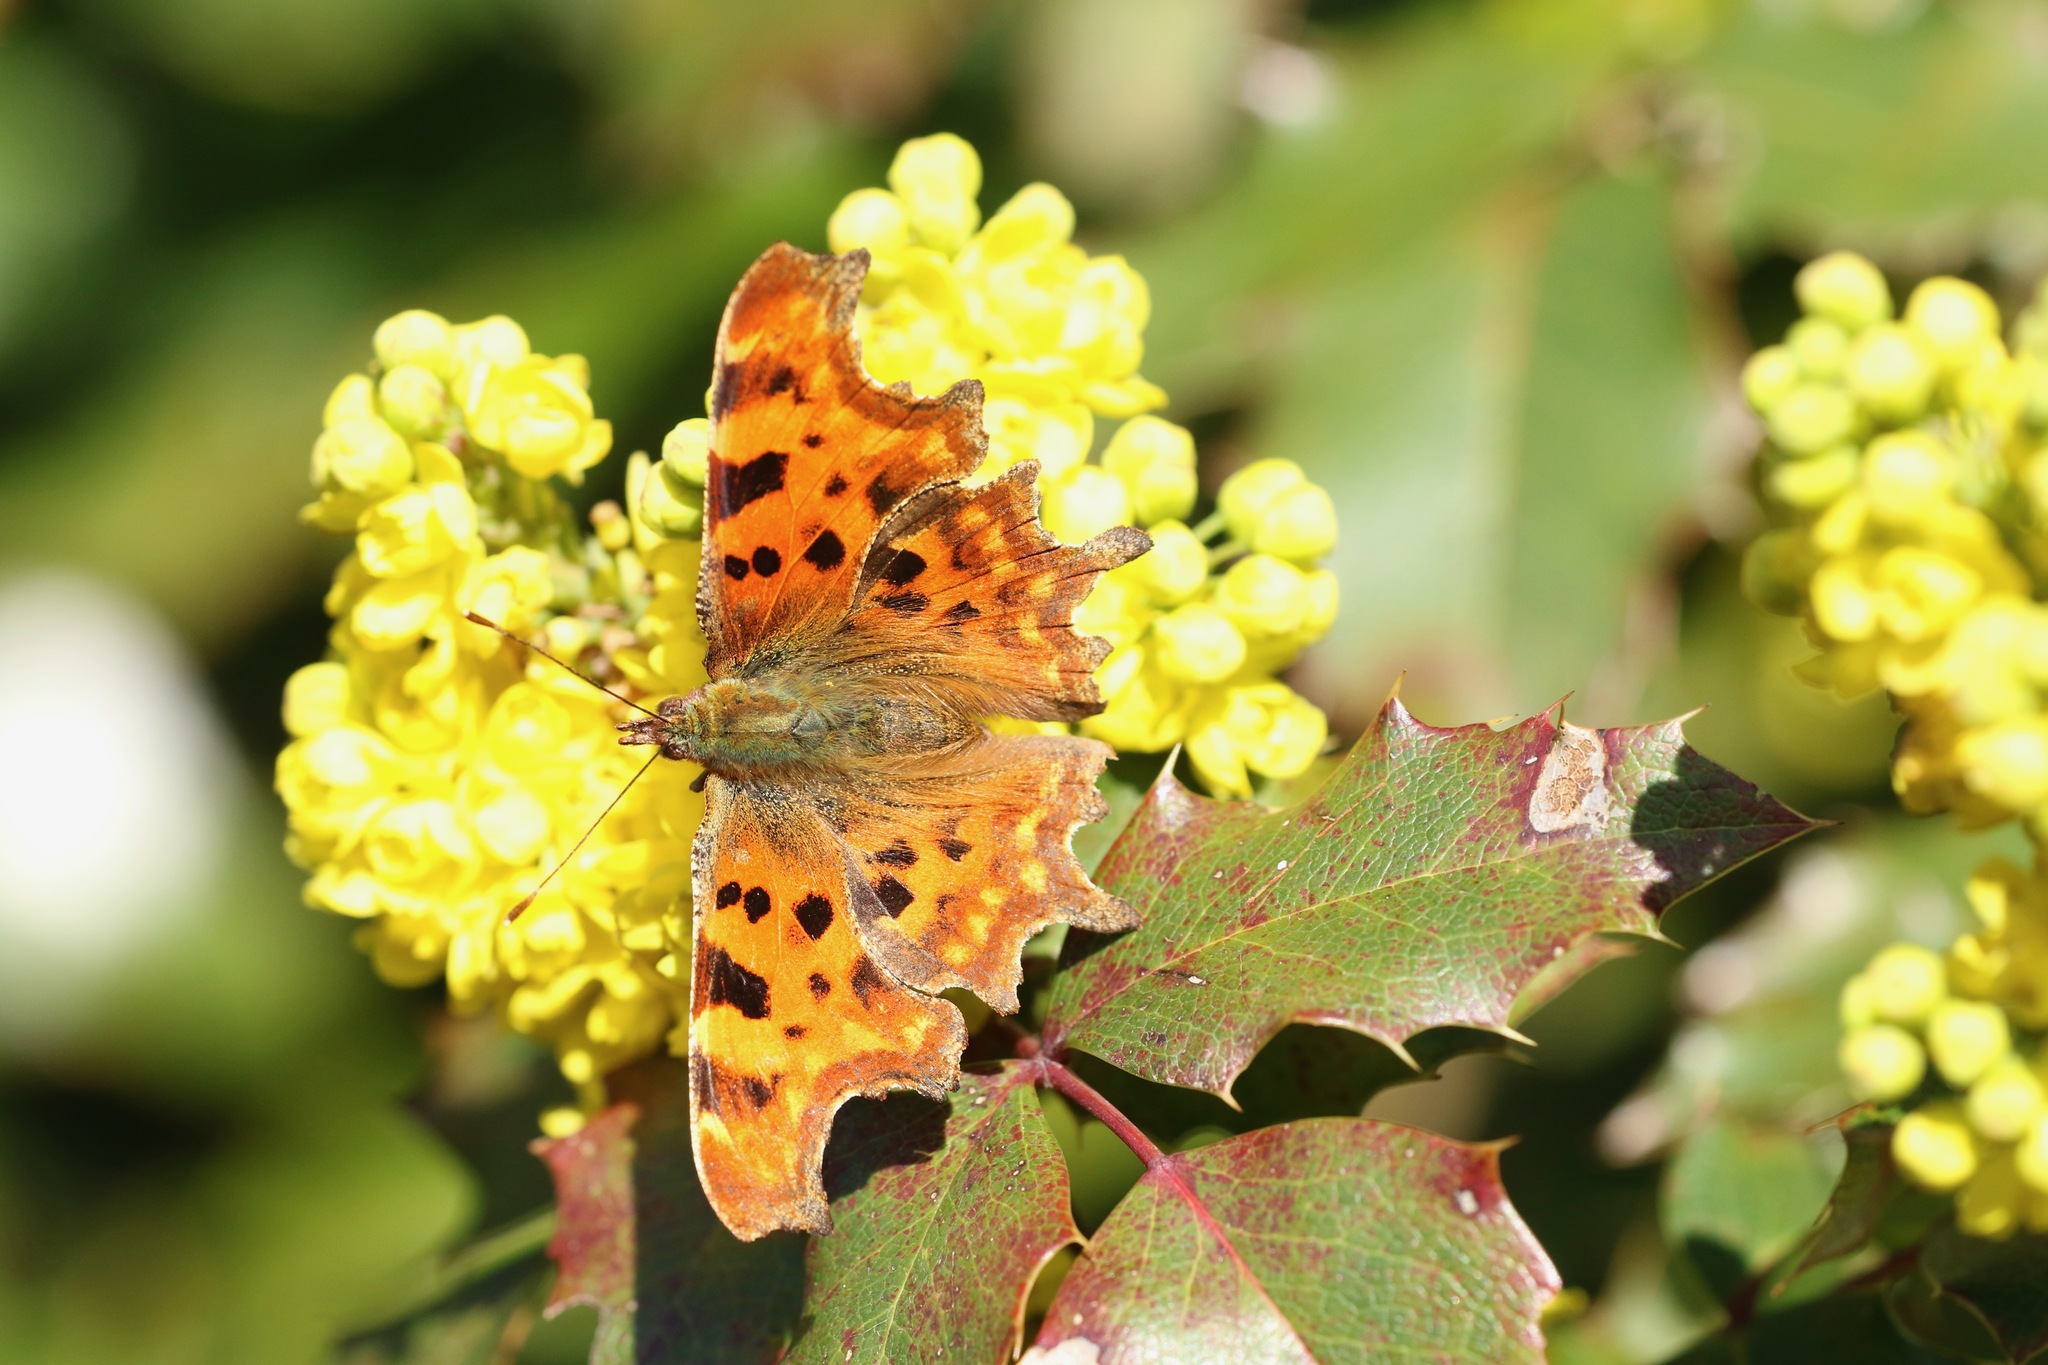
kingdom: Animalia
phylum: Arthropoda
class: Insecta
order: Lepidoptera
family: Nymphalidae
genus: Polygonia
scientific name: Polygonia c-album
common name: Comma
